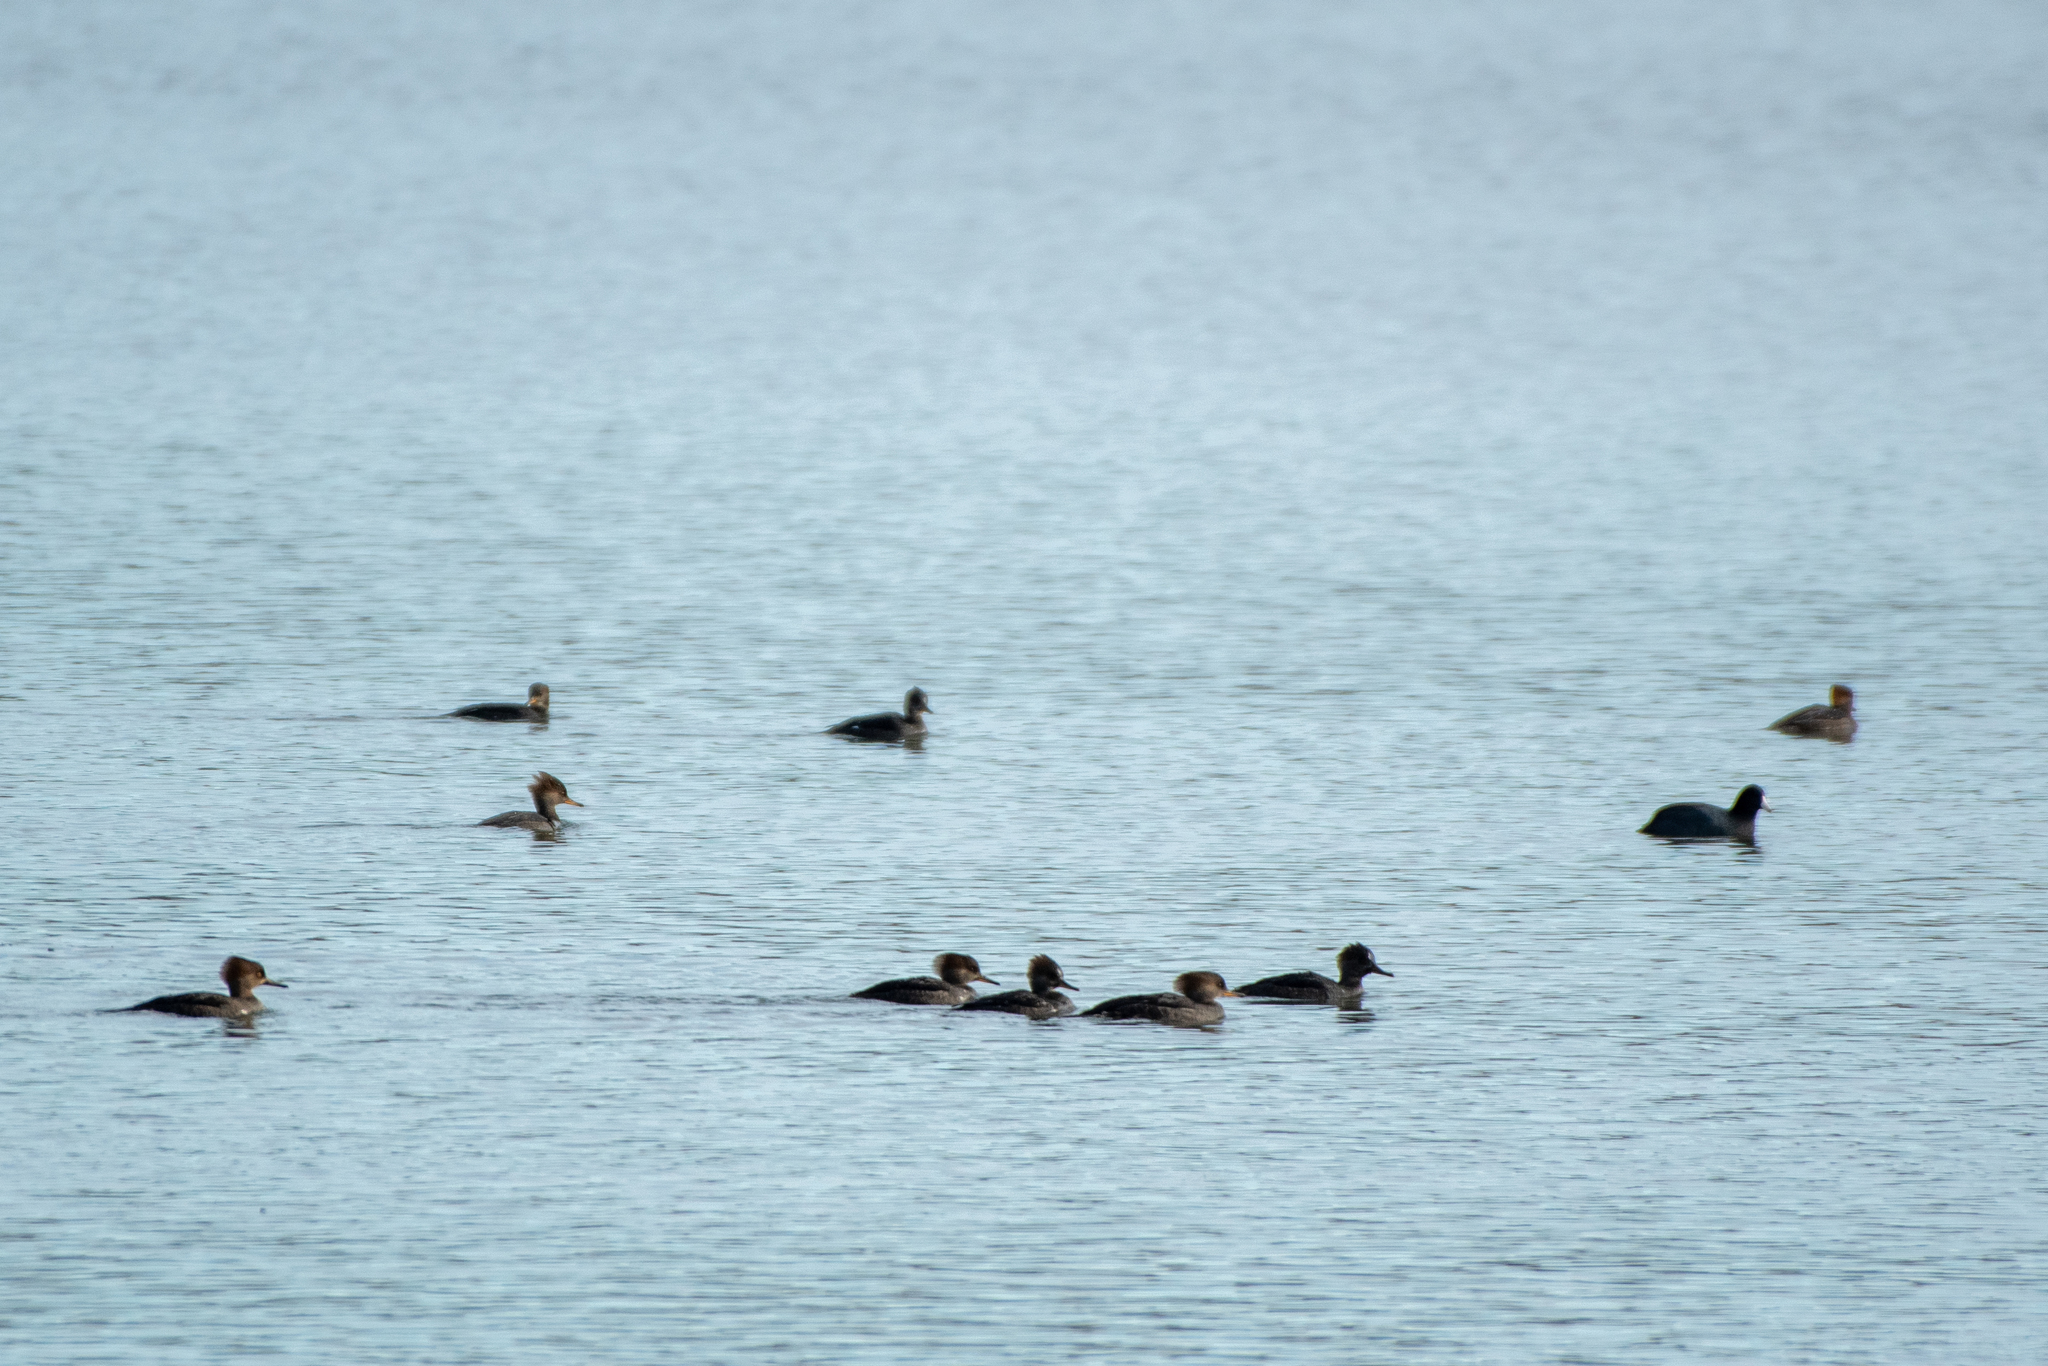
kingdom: Animalia
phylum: Chordata
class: Aves
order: Anseriformes
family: Anatidae
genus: Lophodytes
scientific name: Lophodytes cucullatus
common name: Hooded merganser
